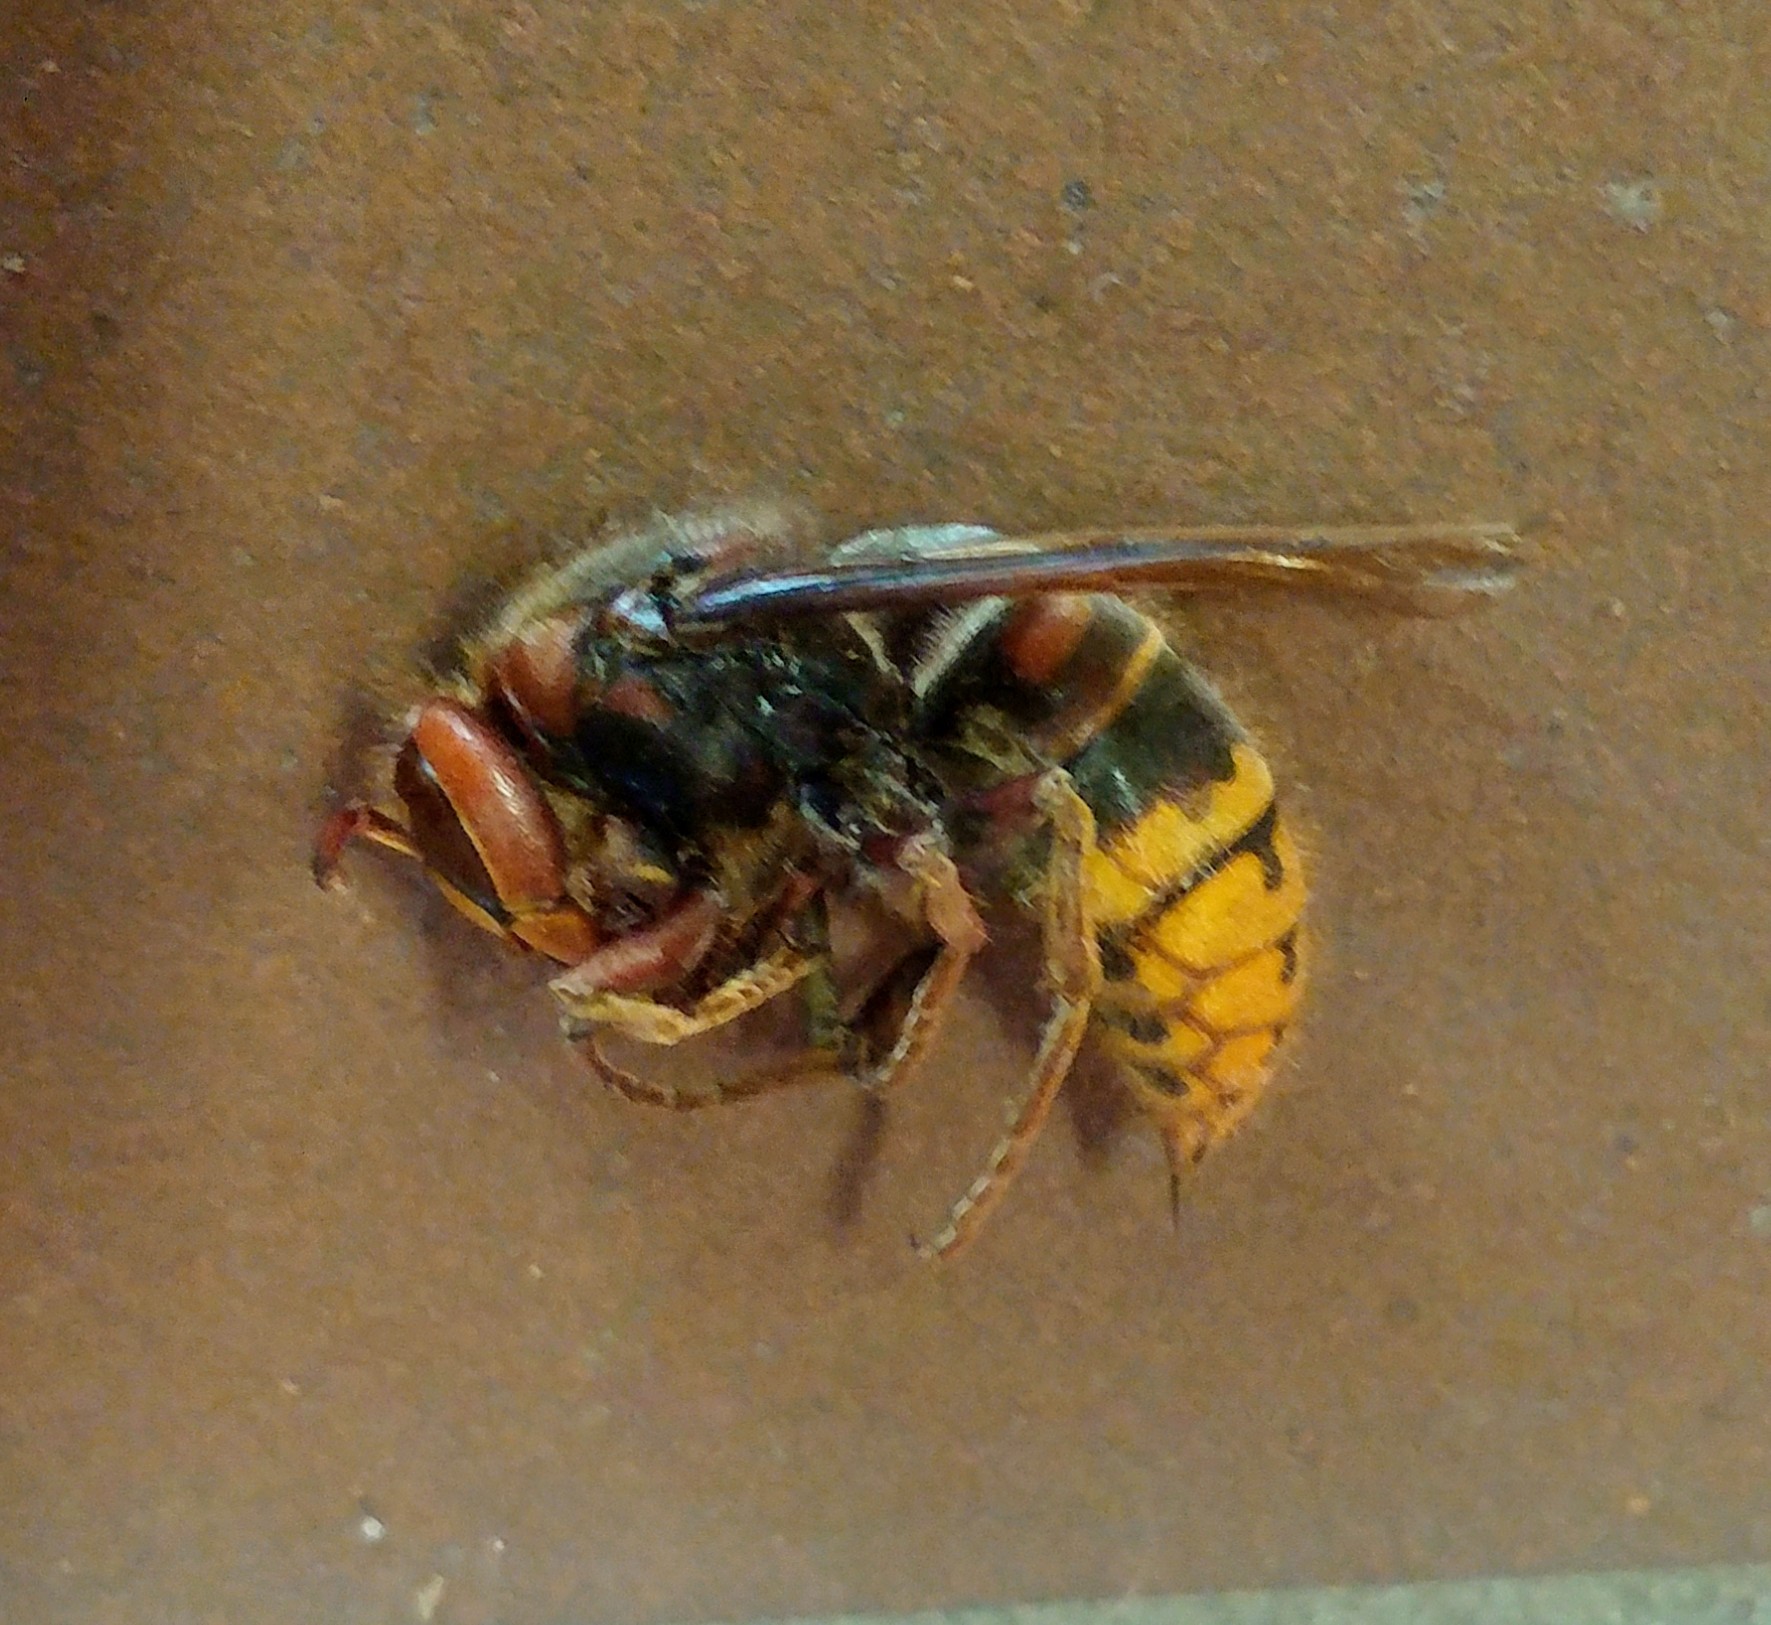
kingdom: Animalia
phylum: Arthropoda
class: Insecta
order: Hymenoptera
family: Vespidae
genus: Vespa
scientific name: Vespa crabro
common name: Hornet
